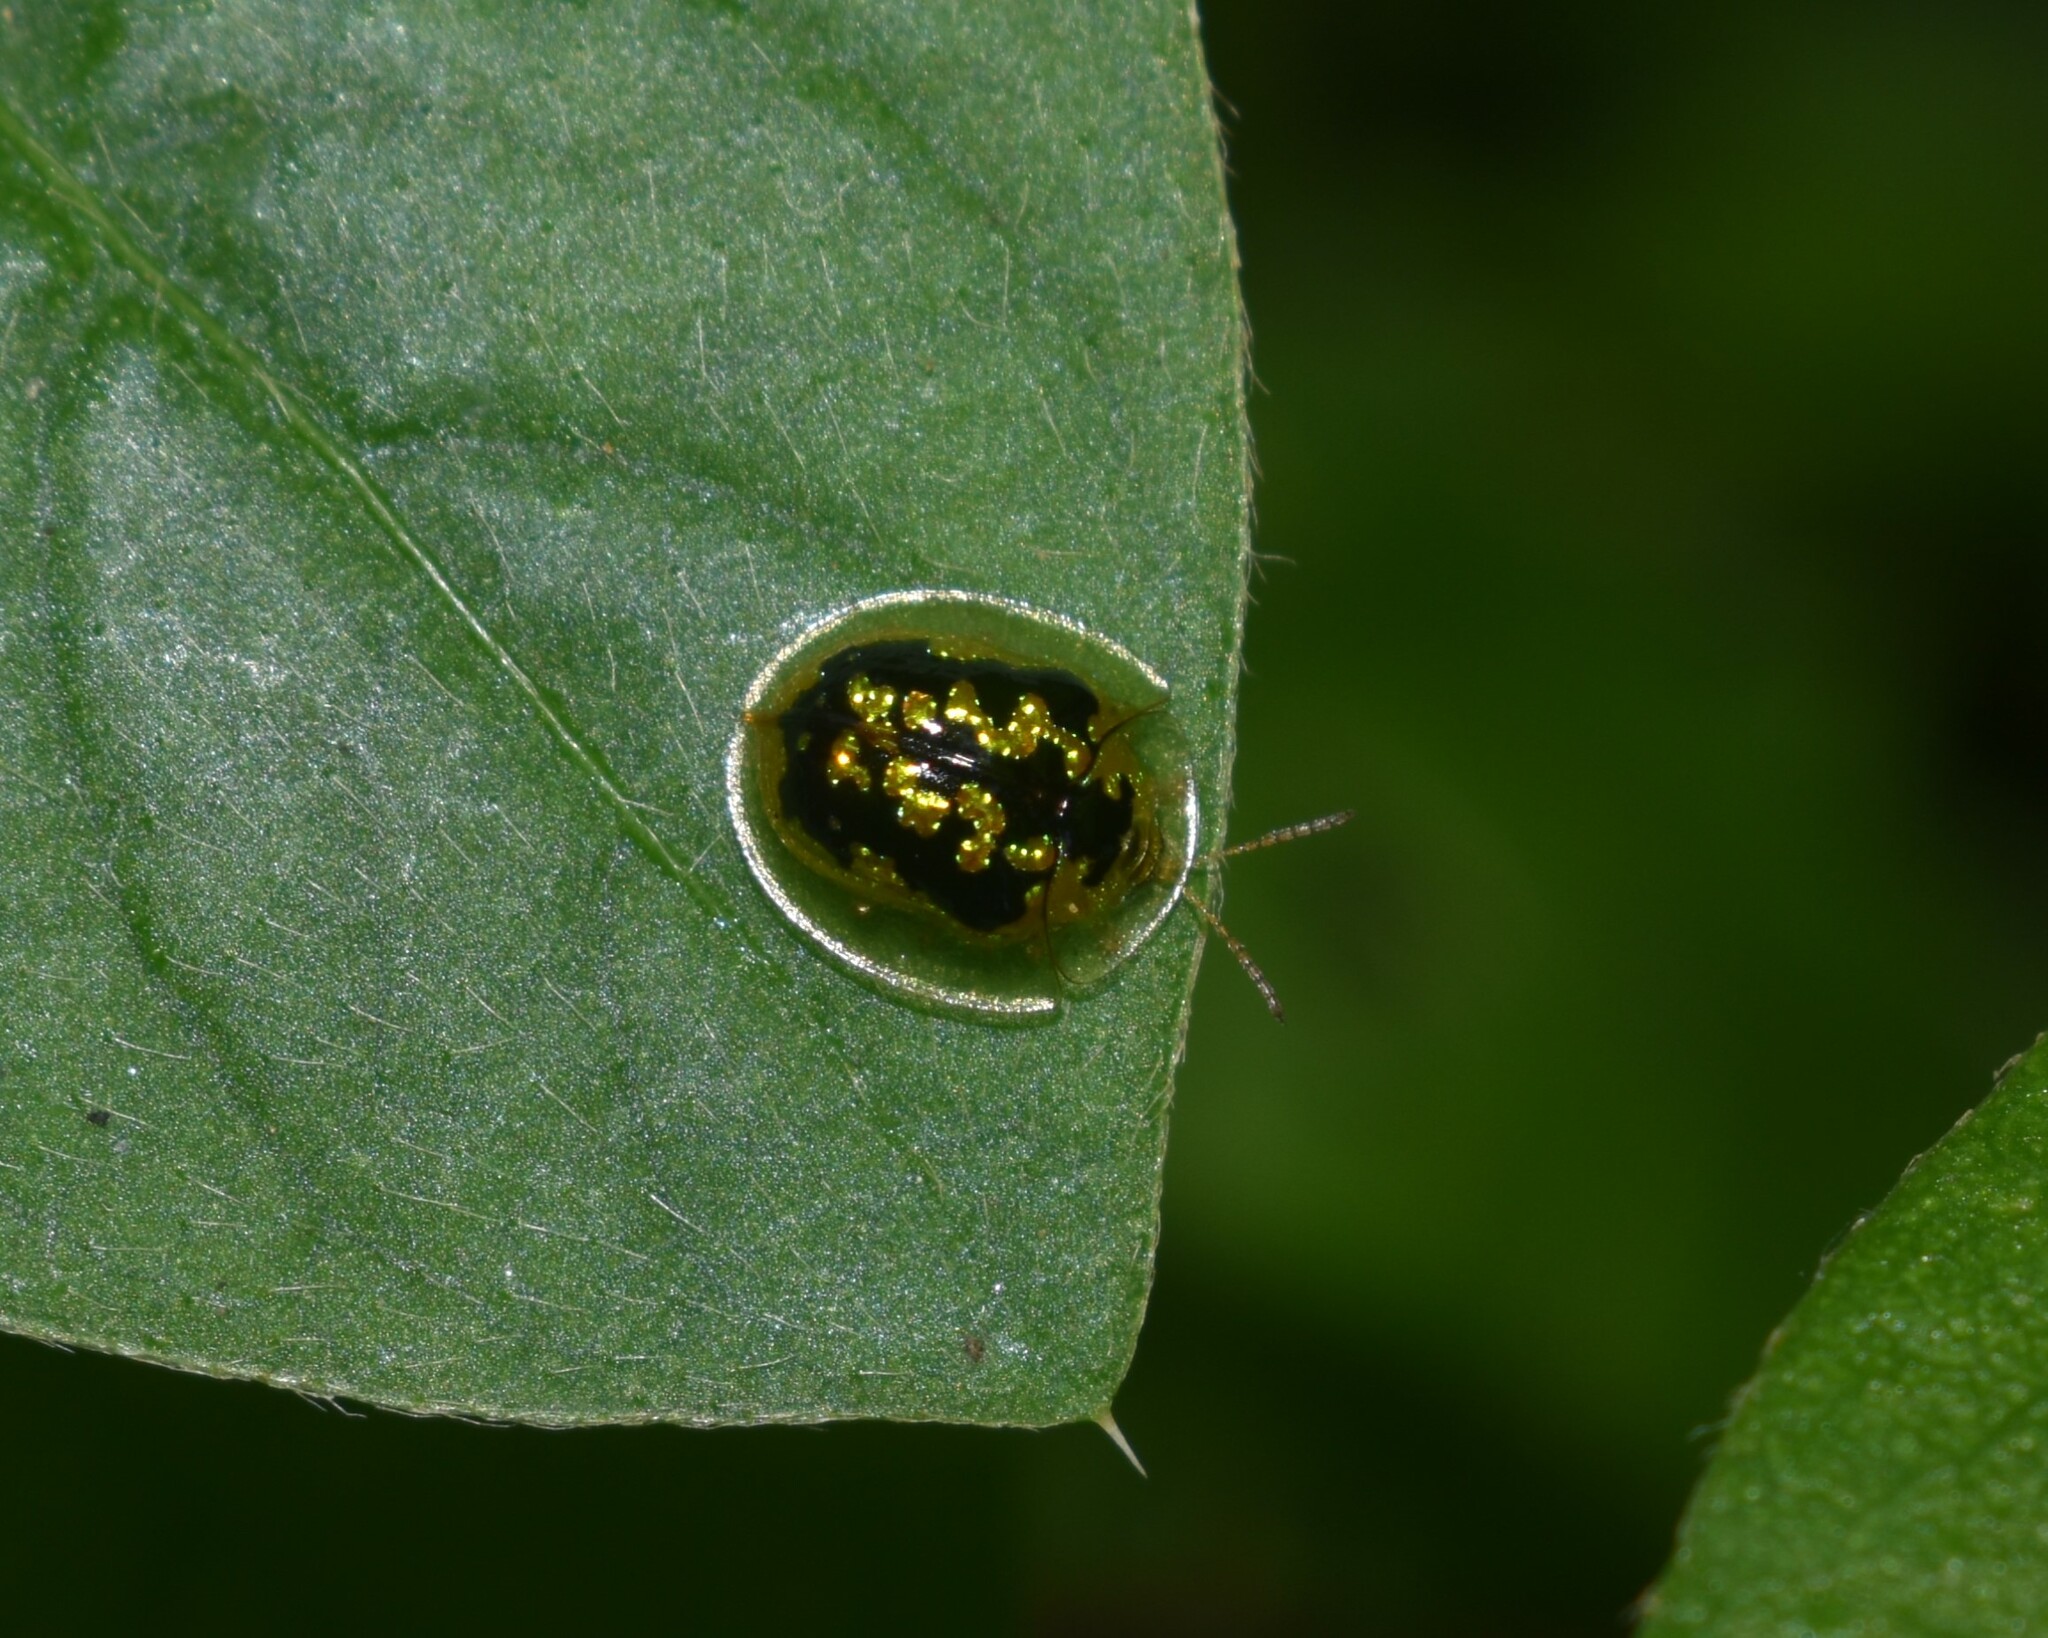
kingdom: Animalia
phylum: Arthropoda
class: Insecta
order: Coleoptera
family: Chrysomelidae
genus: Cassida
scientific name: Cassida circumdata
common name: Tortoise beetle
